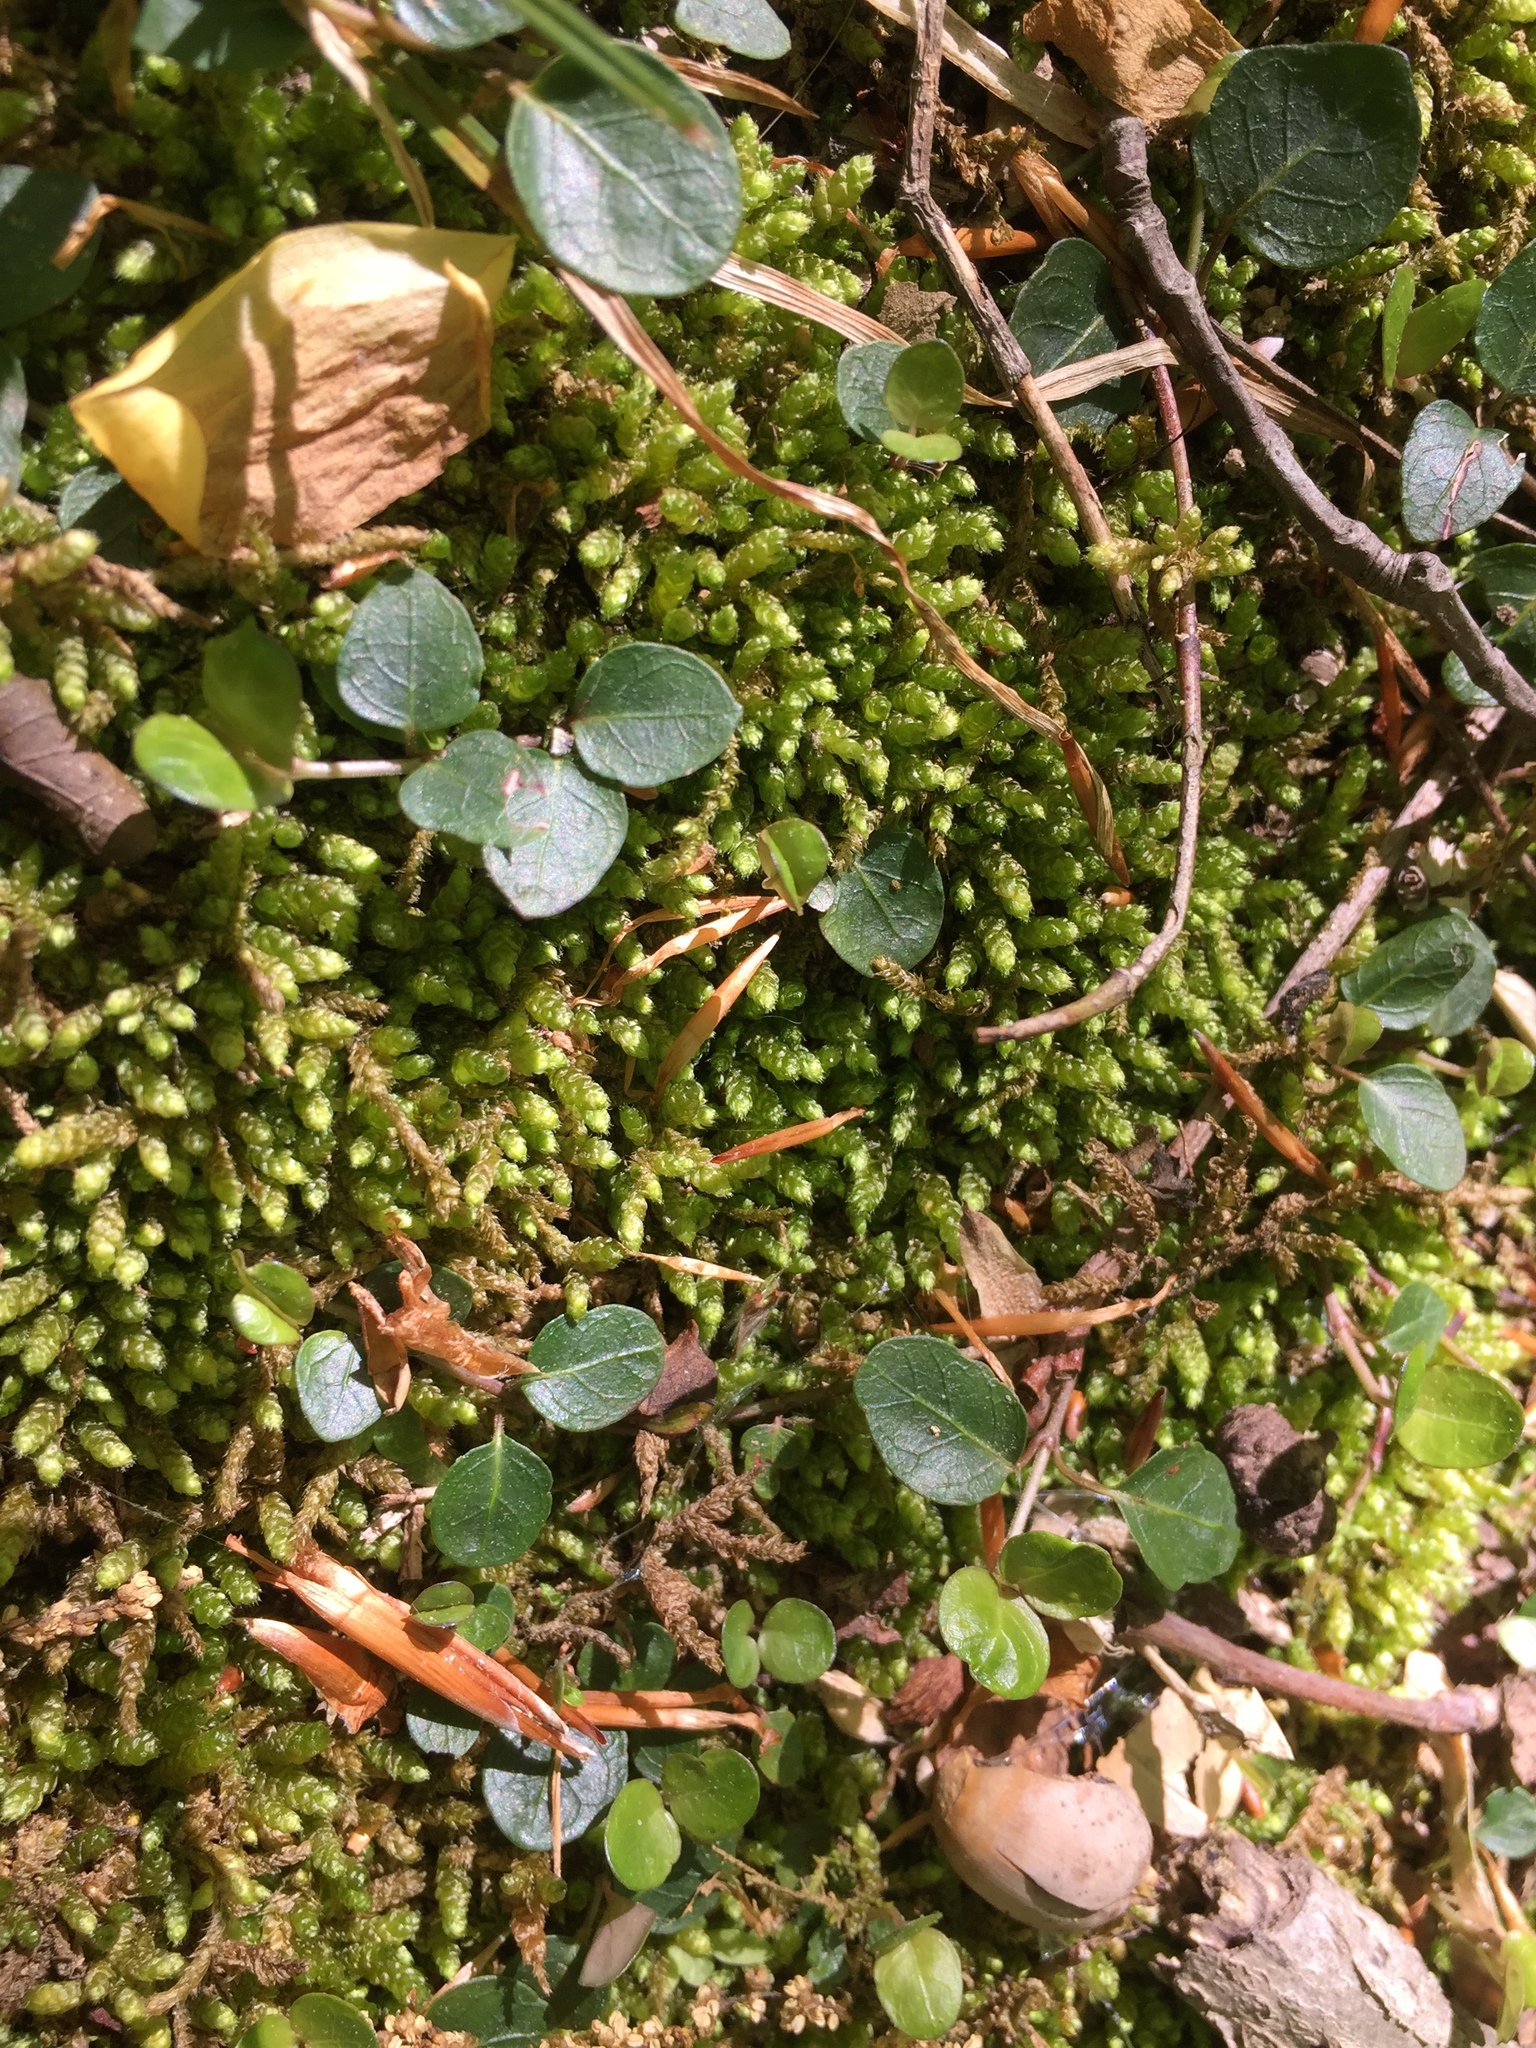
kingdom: Plantae
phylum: Tracheophyta
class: Magnoliopsida
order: Gentianales
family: Rubiaceae
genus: Mitchella
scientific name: Mitchella repens
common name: Partridge-berry
